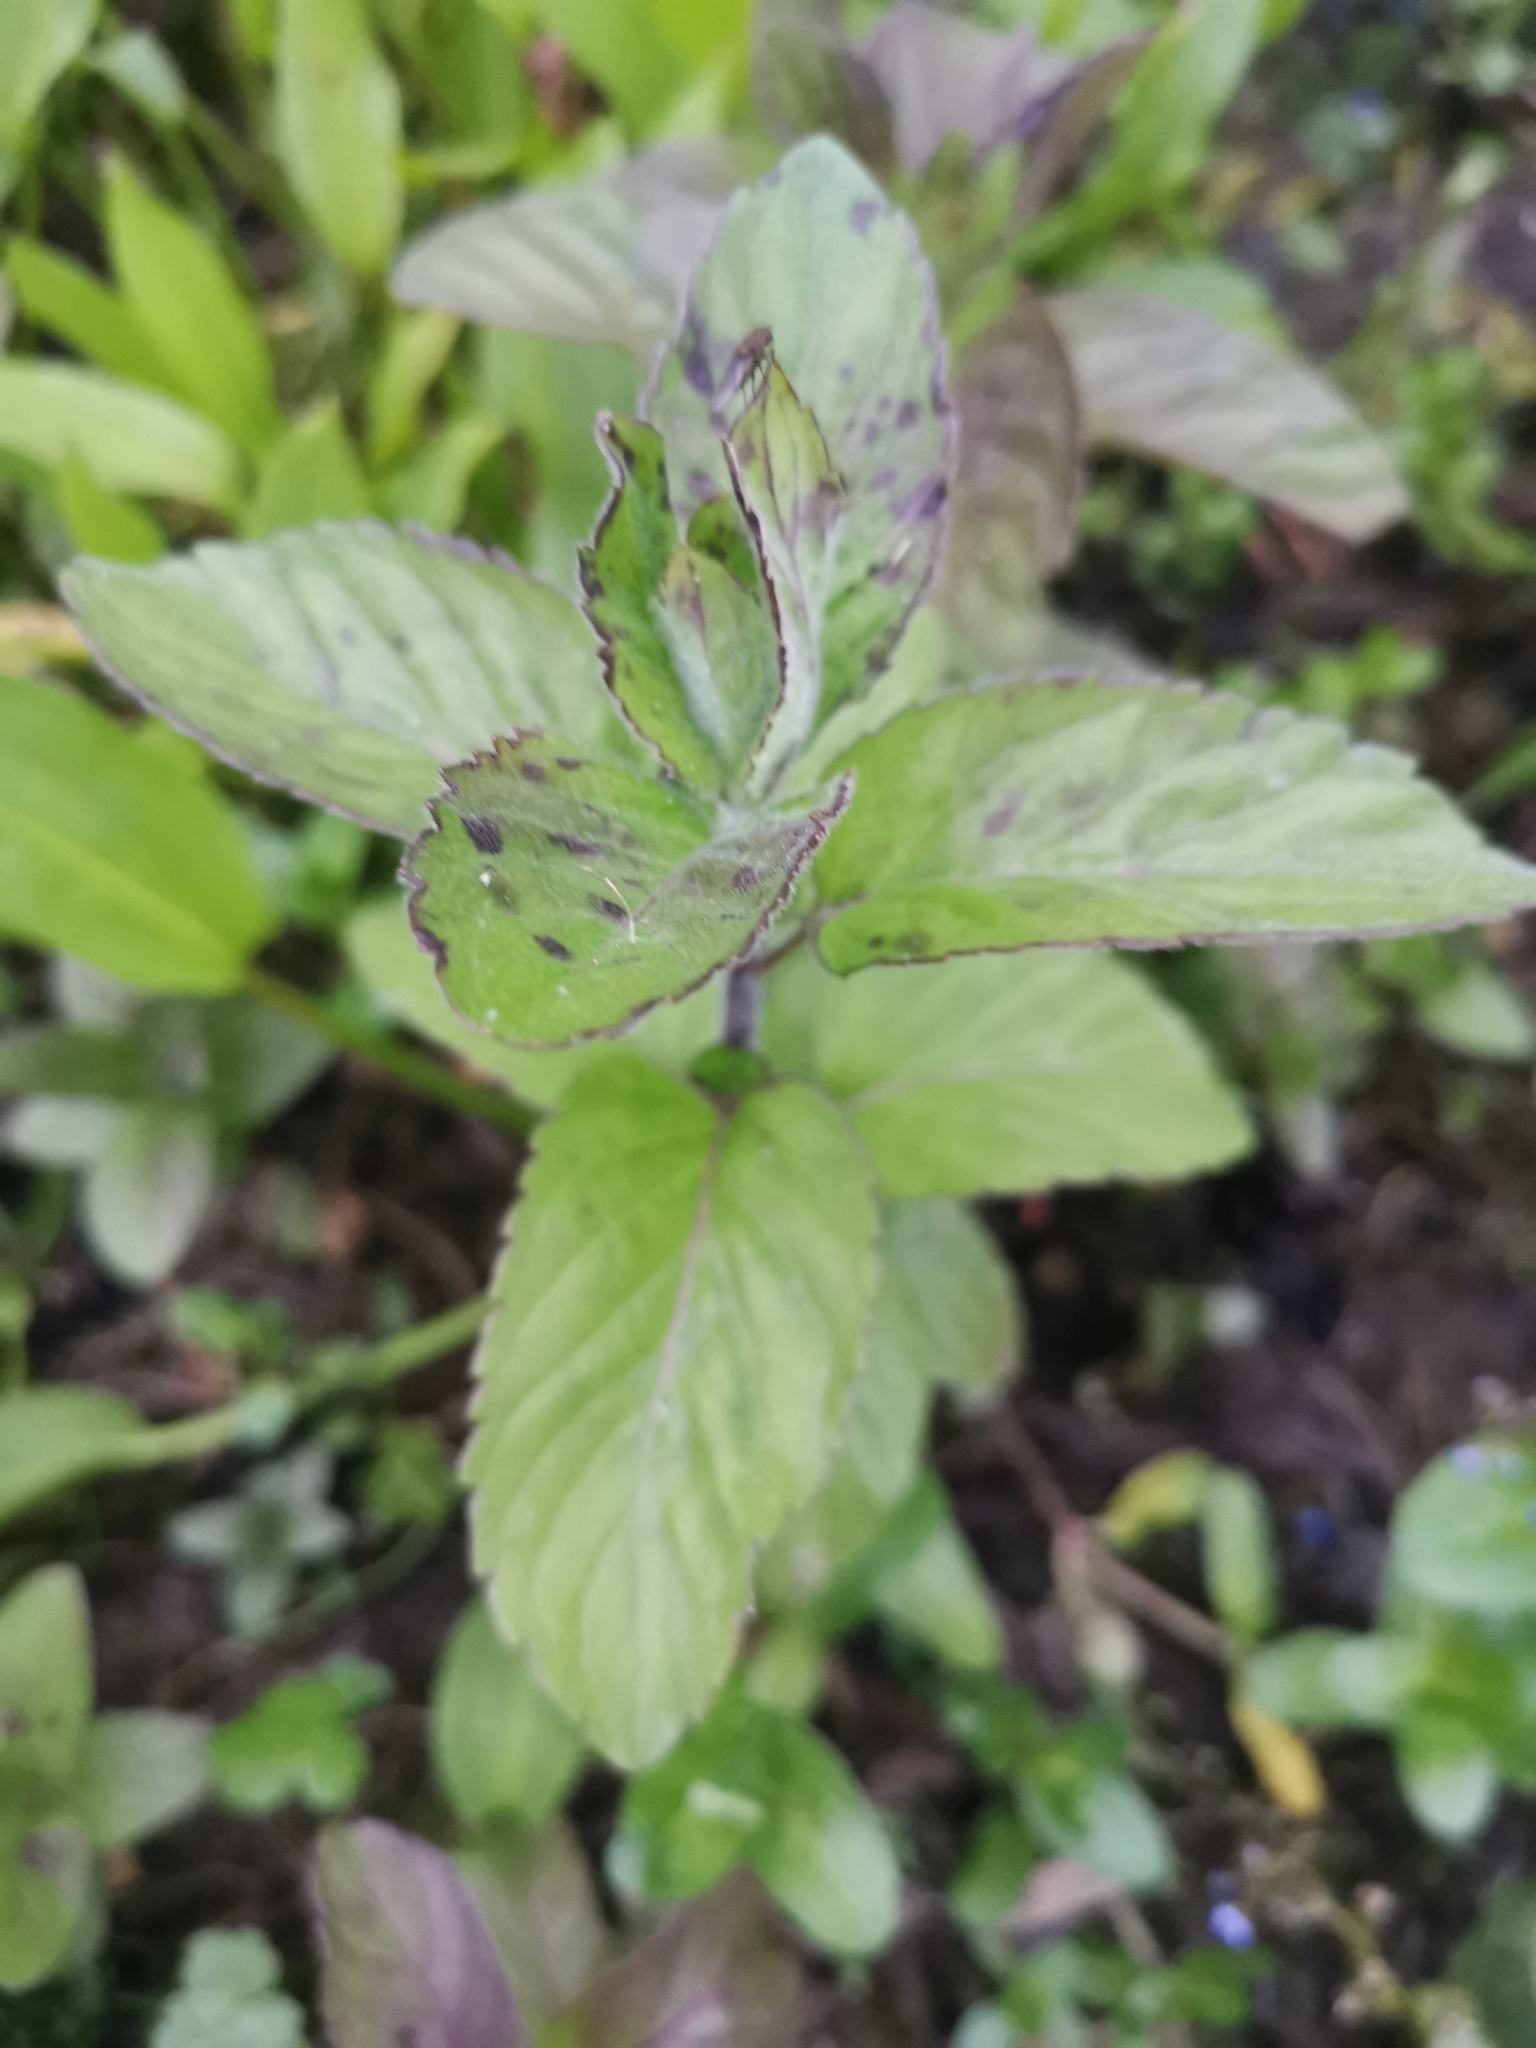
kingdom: Plantae
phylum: Tracheophyta
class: Magnoliopsida
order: Lamiales
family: Lamiaceae
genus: Mentha
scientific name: Mentha aquatica
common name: Water mint
